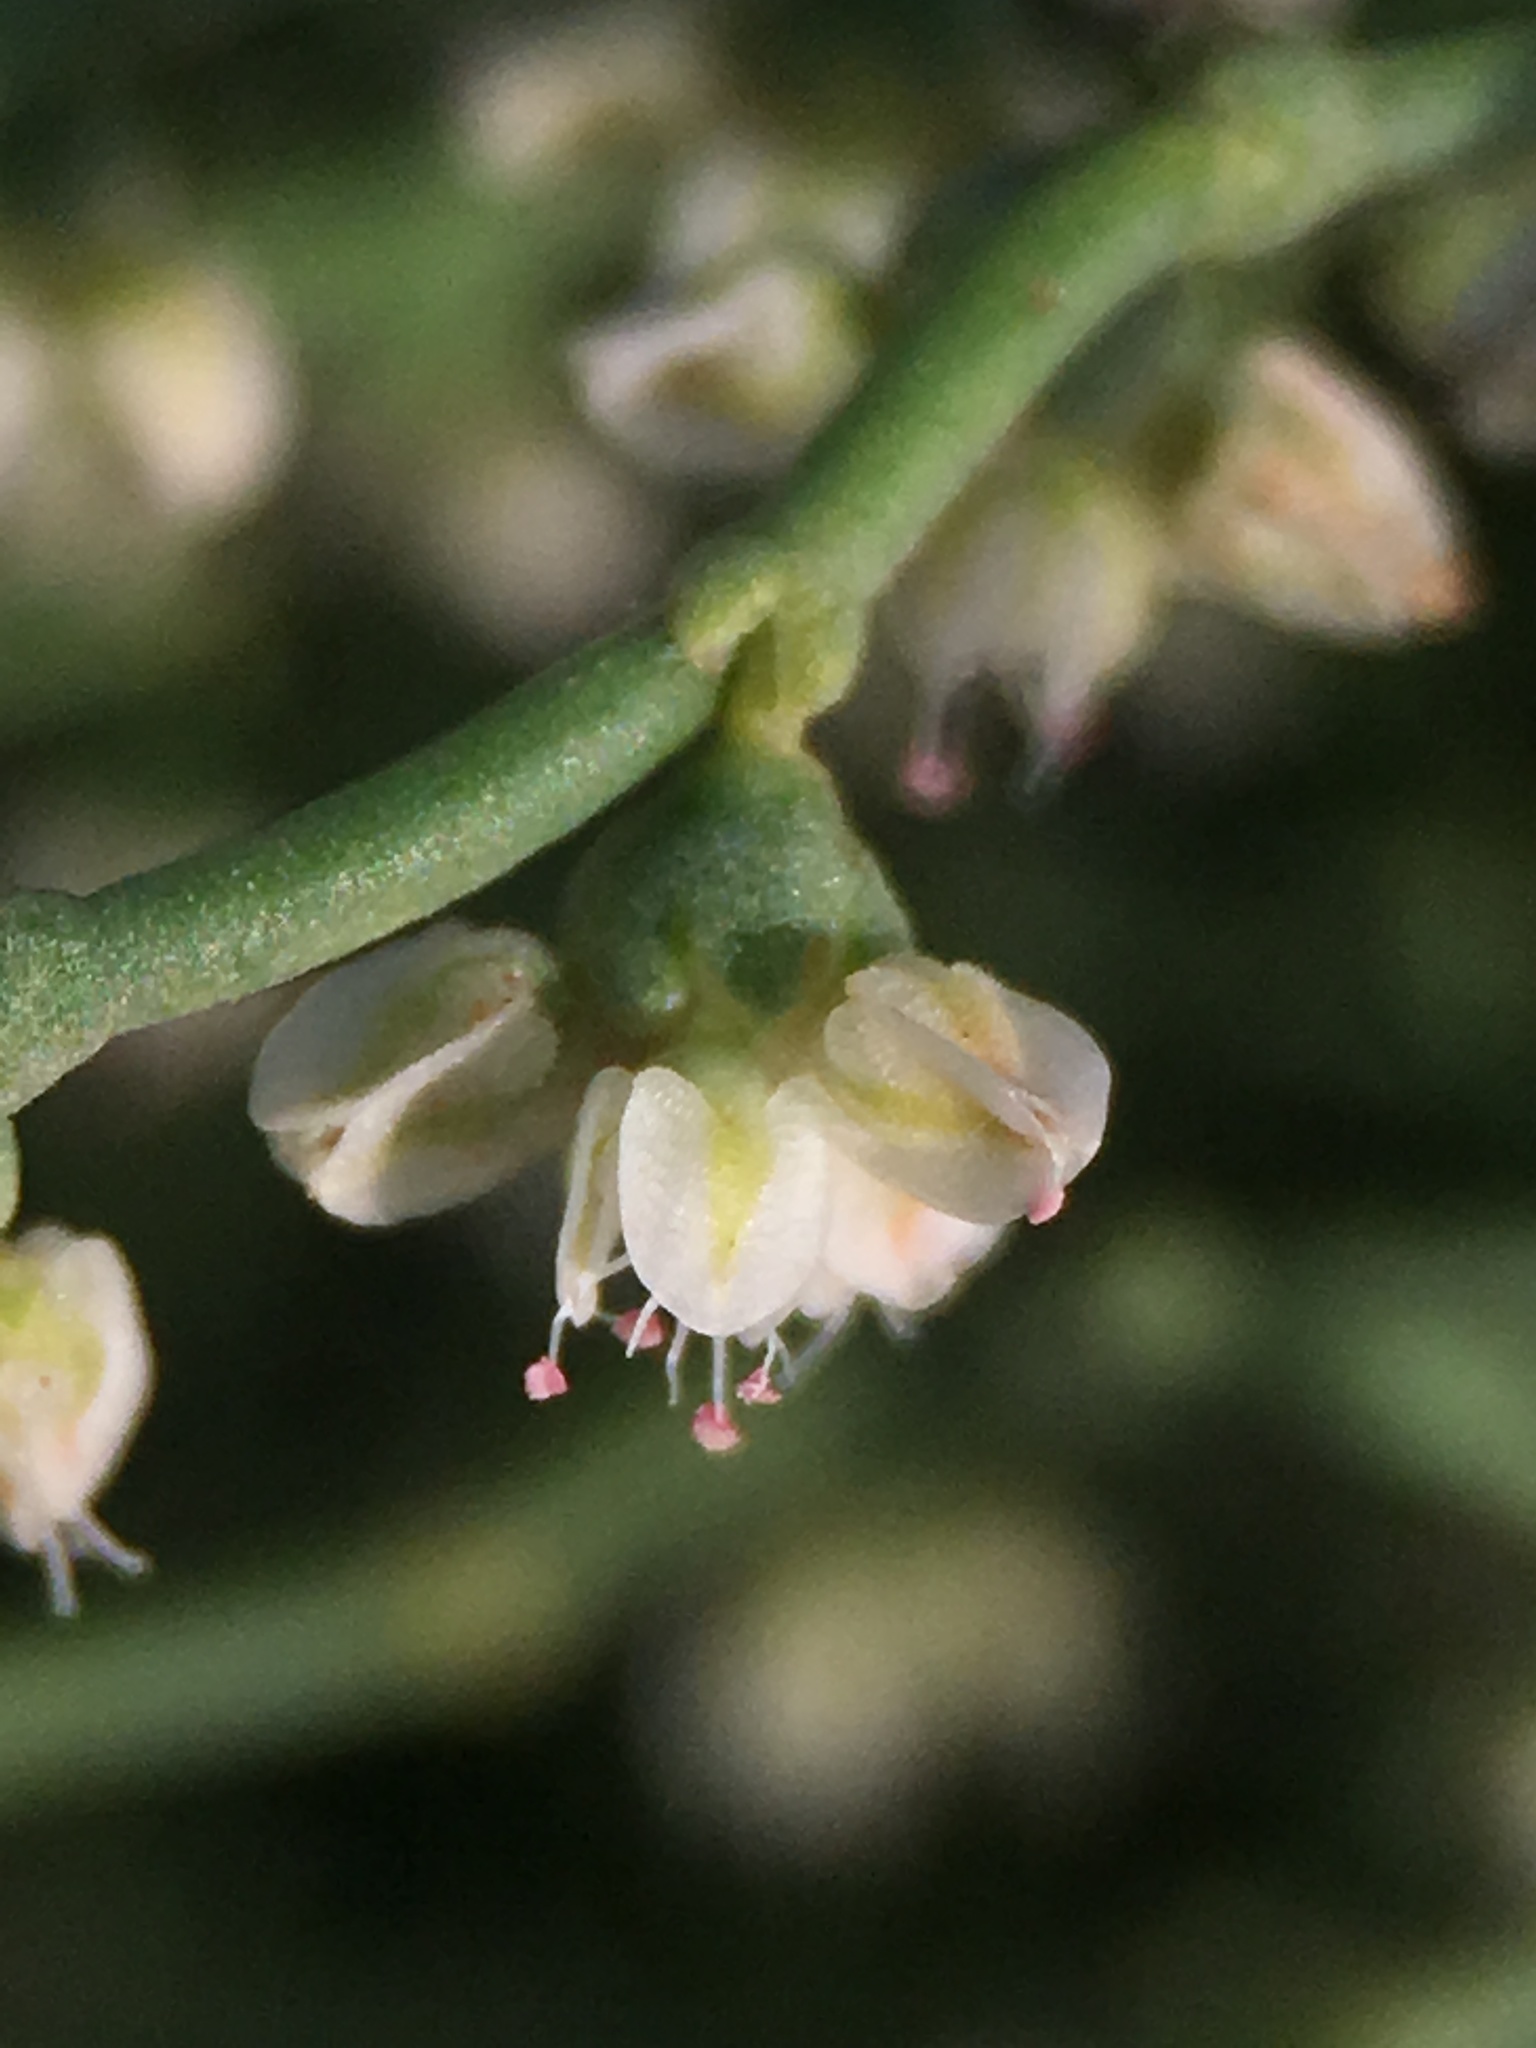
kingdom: Plantae
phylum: Tracheophyta
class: Magnoliopsida
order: Caryophyllales
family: Polygonaceae
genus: Eriogonum
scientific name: Eriogonum rixfordii
